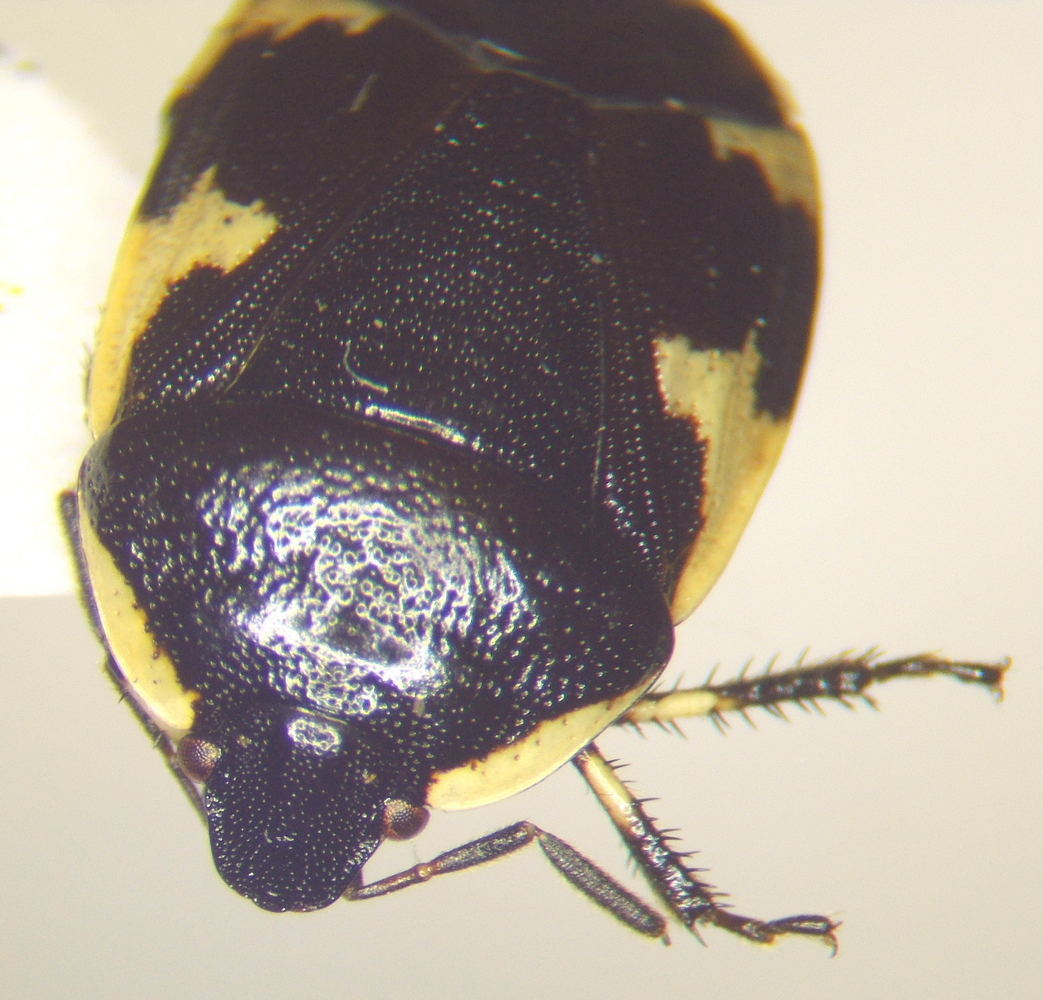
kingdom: Animalia
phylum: Arthropoda
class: Insecta
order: Hemiptera
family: Cydnidae
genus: Tritomegas
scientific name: Tritomegas sexmaculatus
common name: Rambur's pied shieldbug
